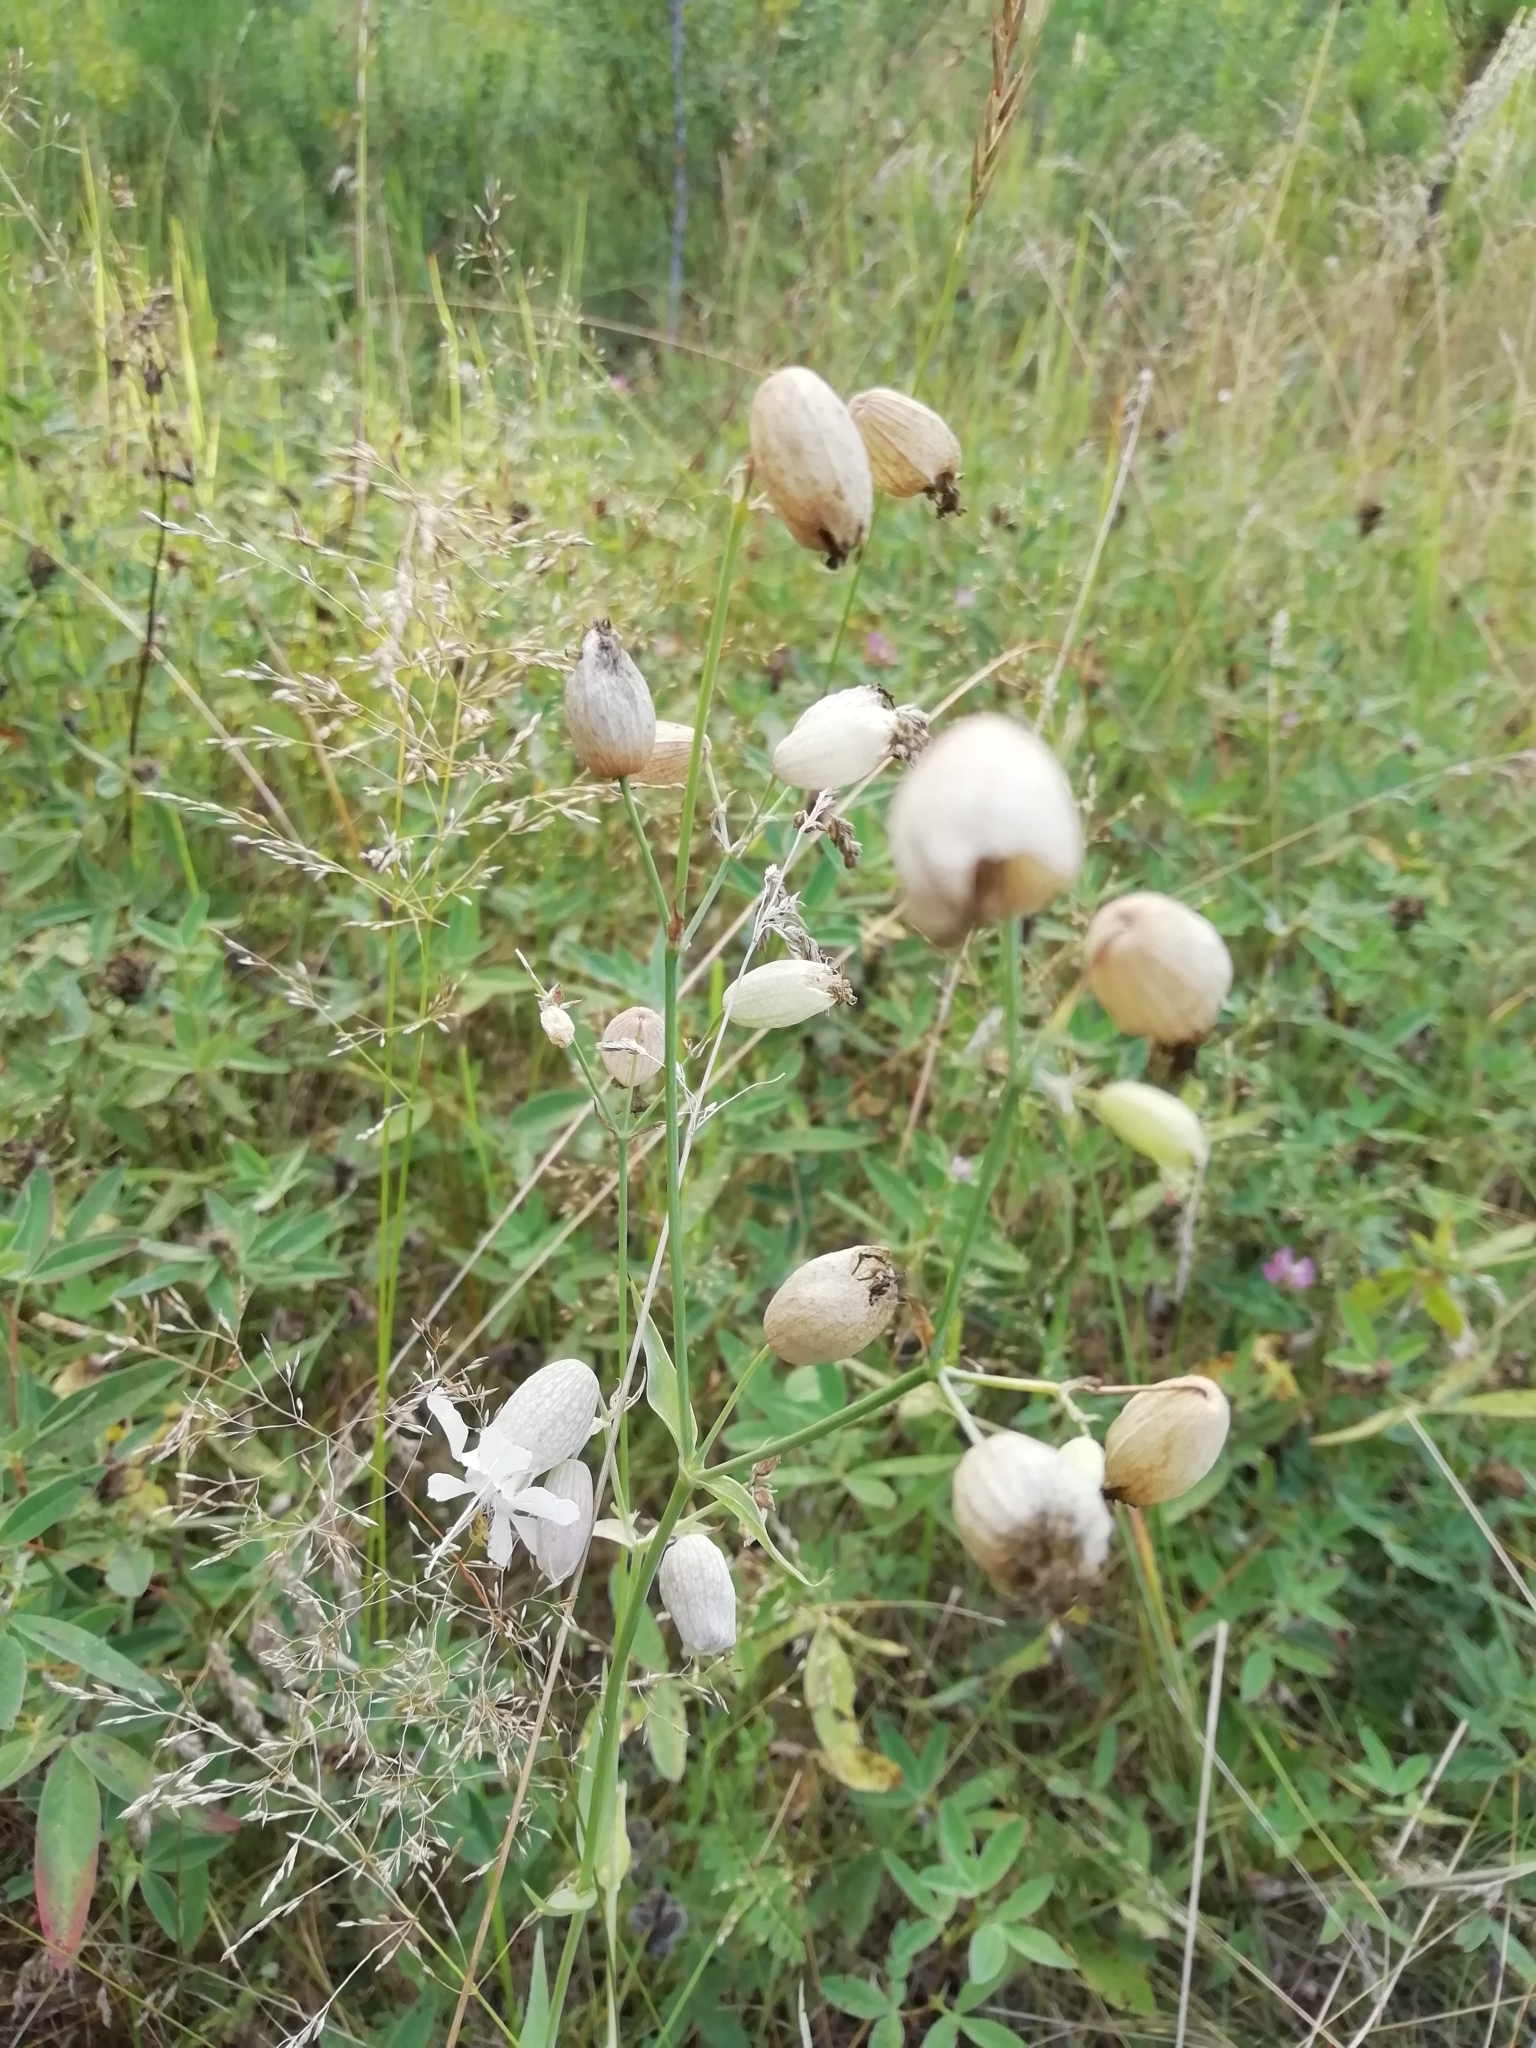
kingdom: Plantae
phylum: Tracheophyta
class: Magnoliopsida
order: Caryophyllales
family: Caryophyllaceae
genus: Silene
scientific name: Silene vulgaris
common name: Bladder campion
